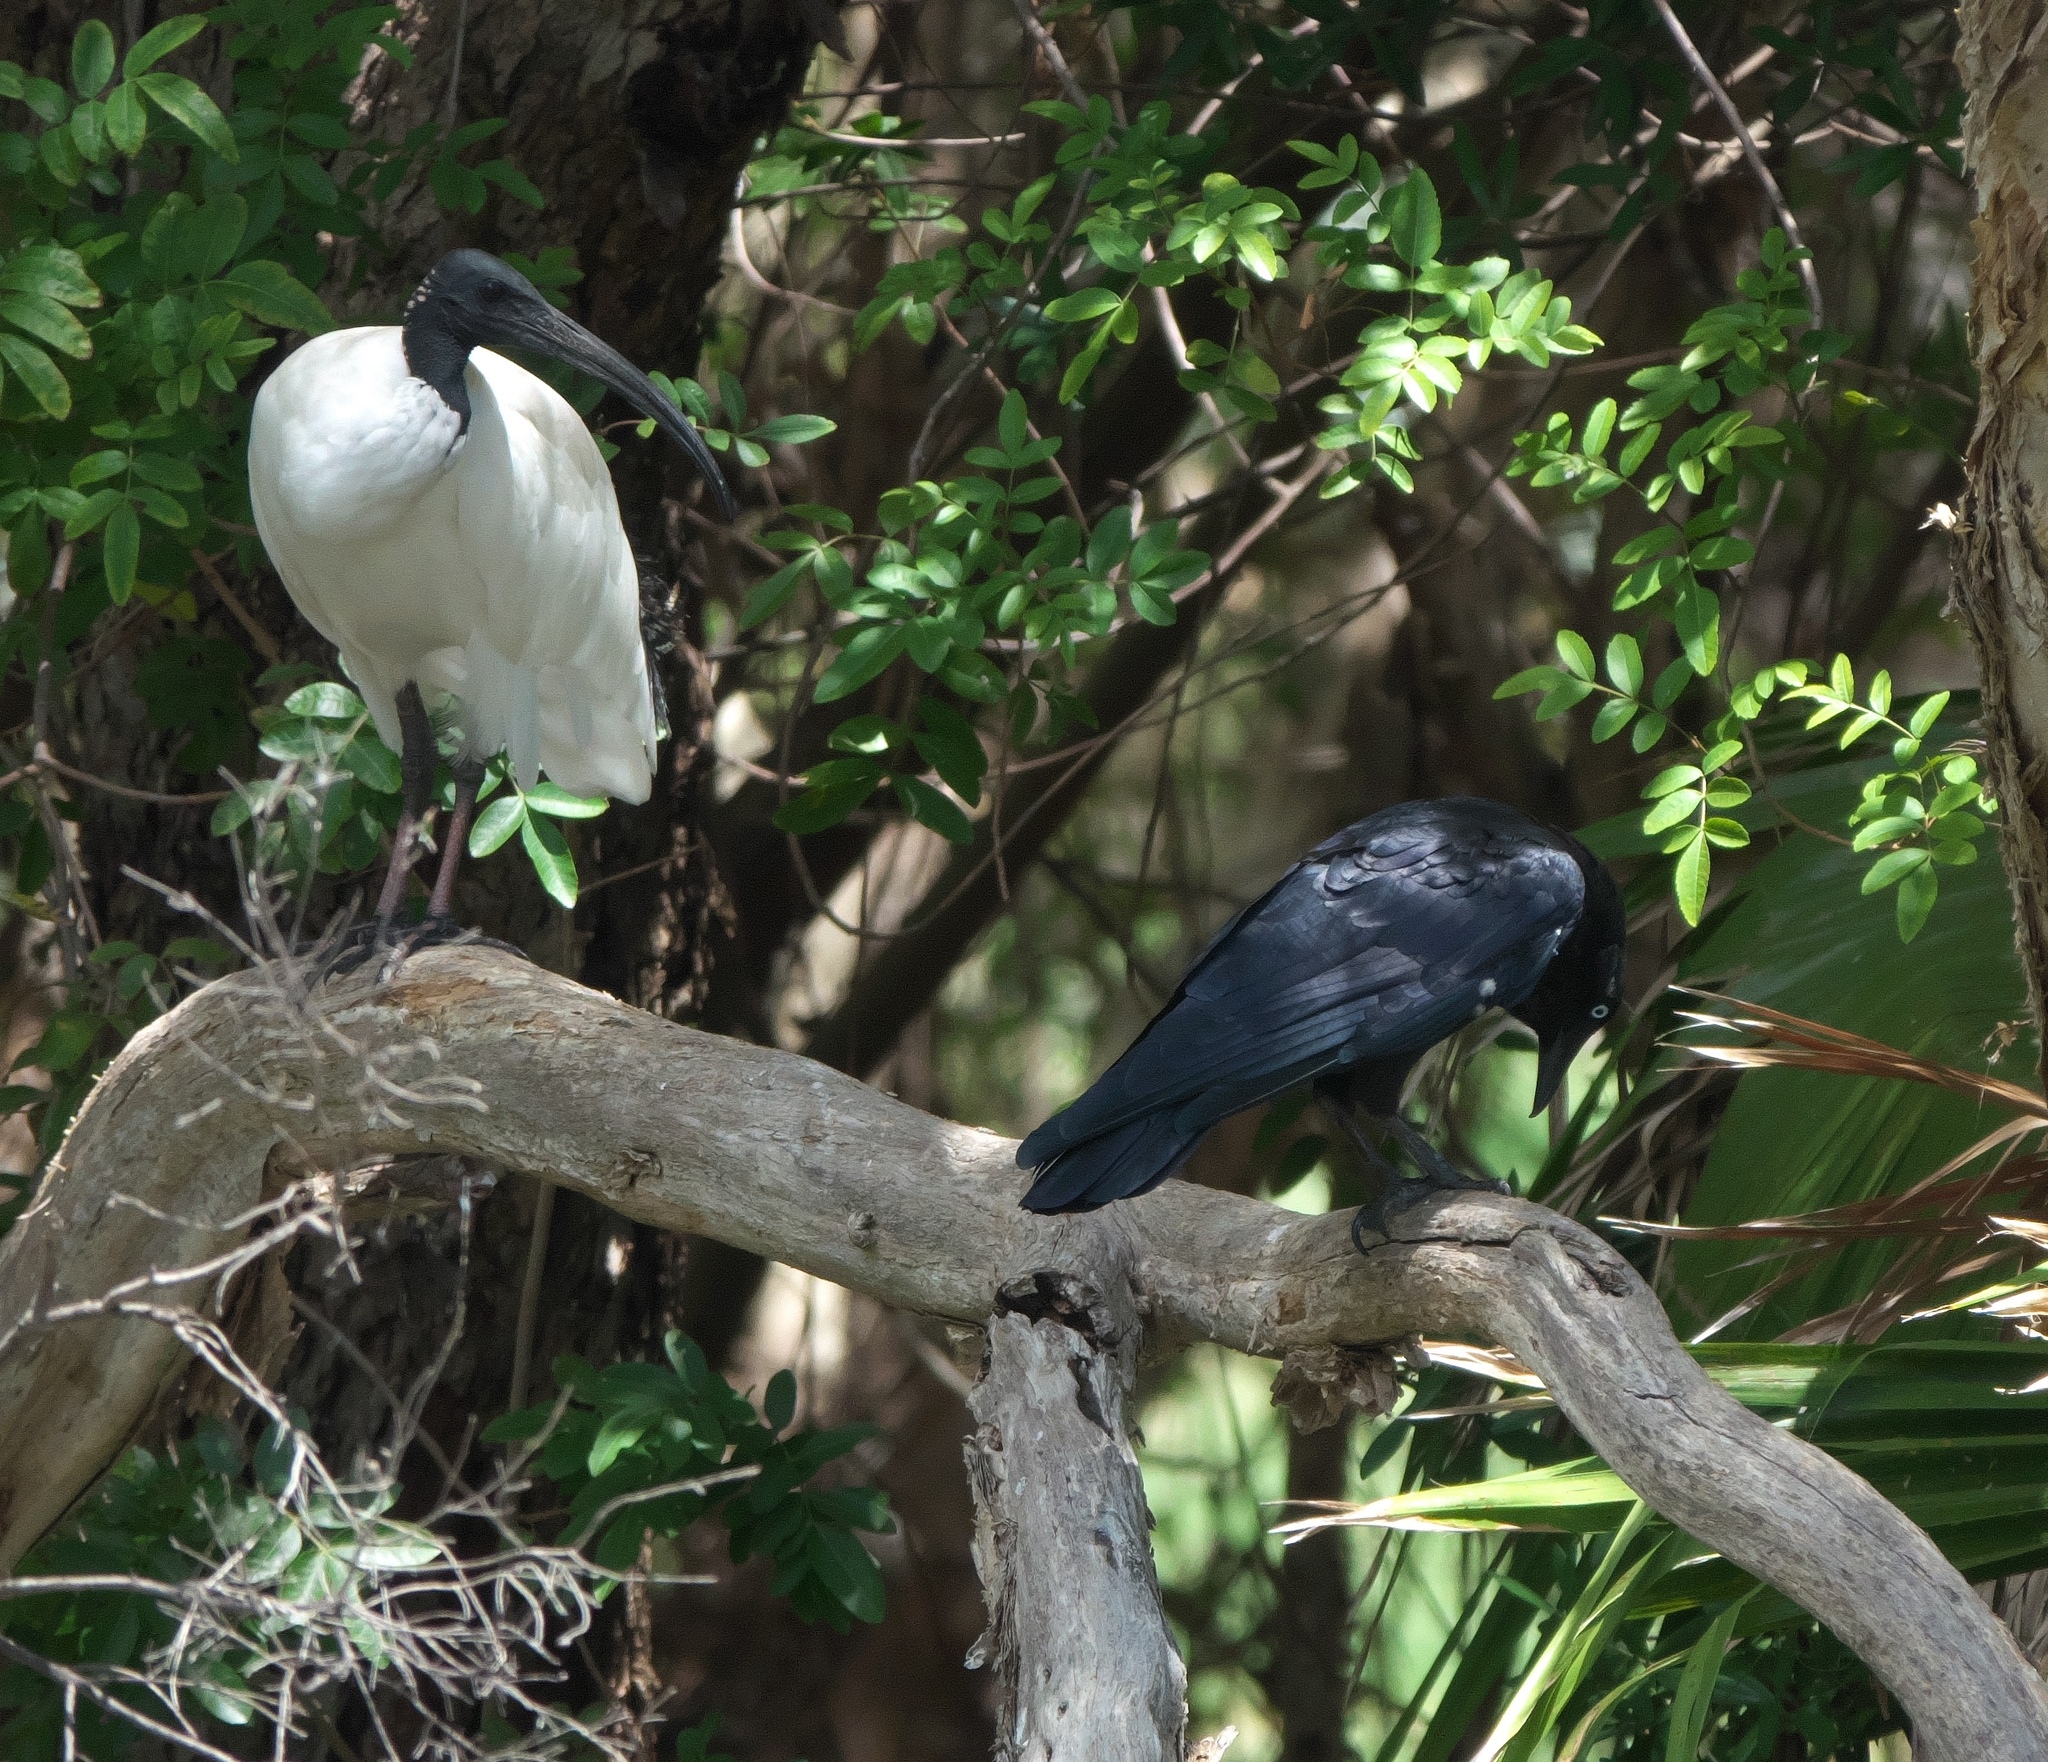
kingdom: Animalia
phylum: Chordata
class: Aves
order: Passeriformes
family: Corvidae
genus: Corvus
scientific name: Corvus coronoides
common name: Australian raven
